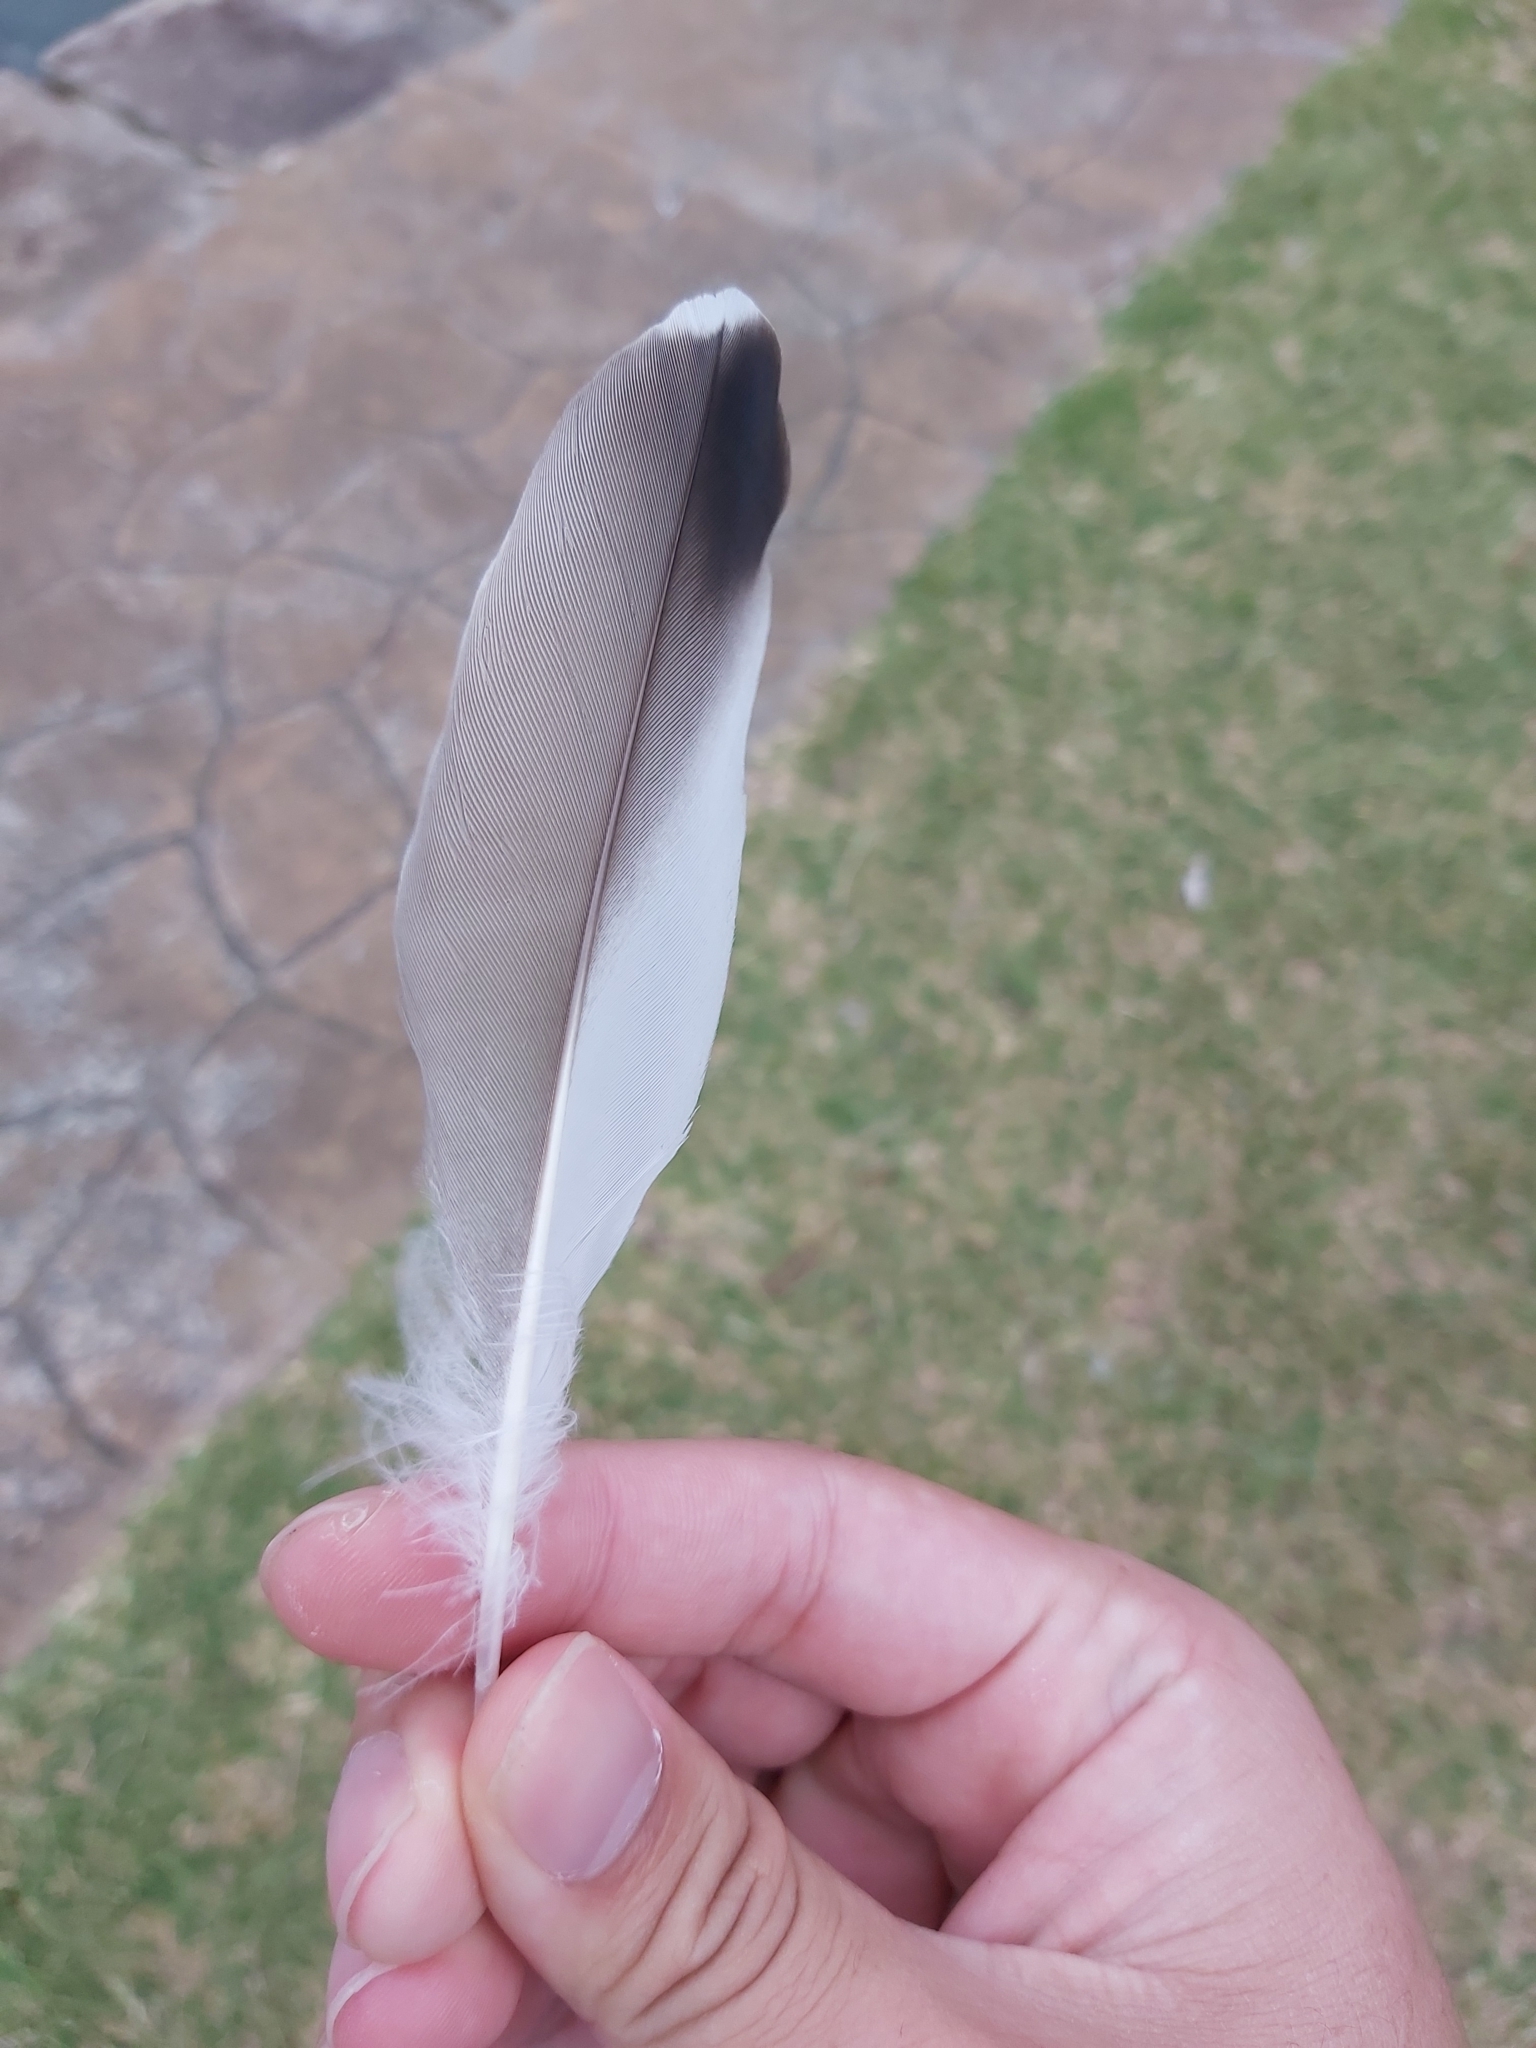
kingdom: Animalia
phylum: Chordata
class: Aves
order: Charadriiformes
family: Charadriidae
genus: Vanellus
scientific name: Vanellus miles
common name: Masked lapwing
